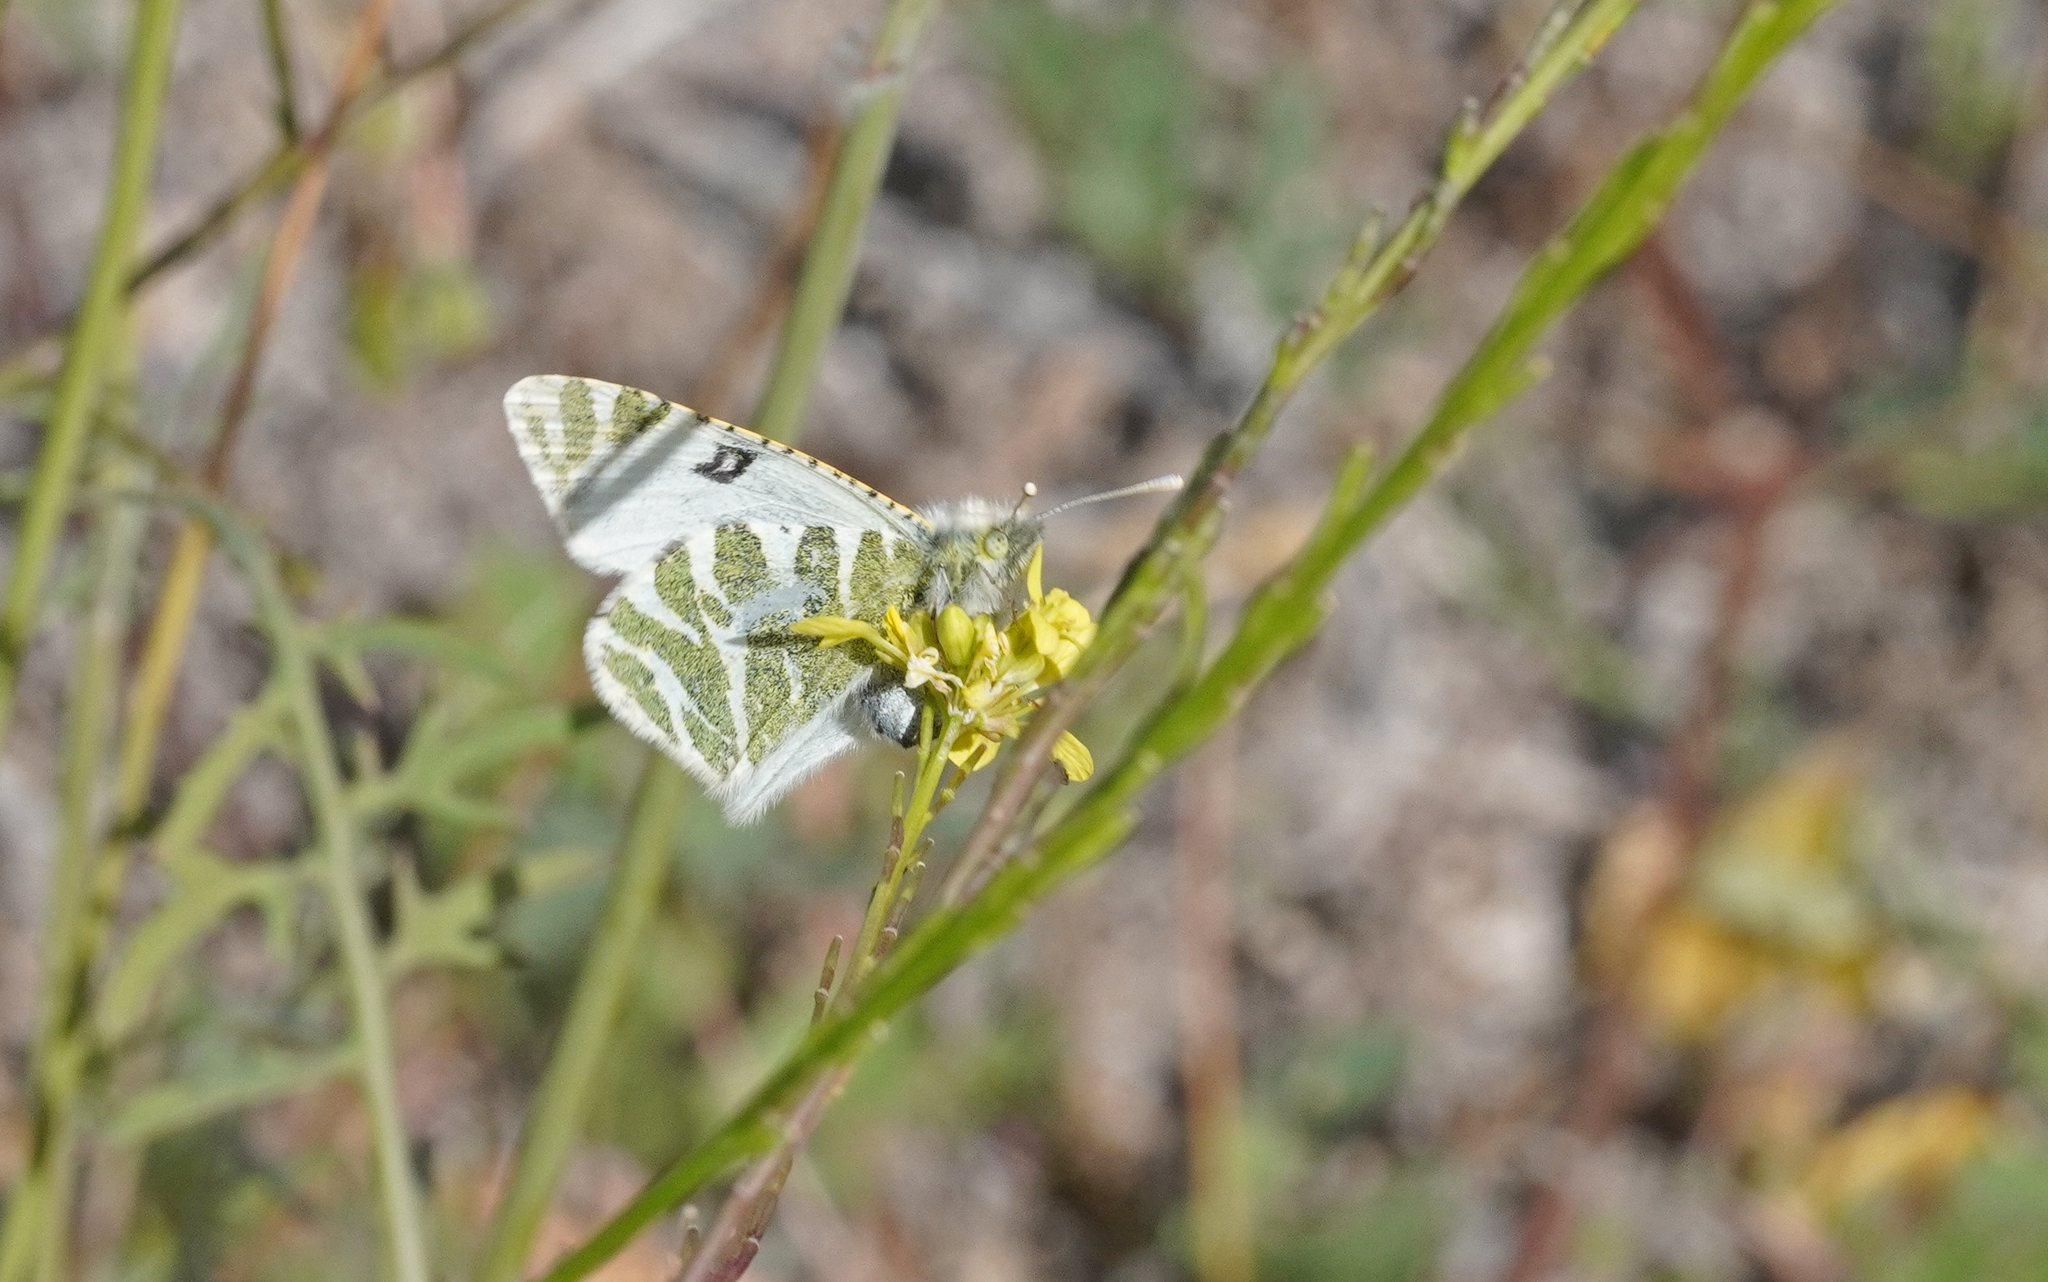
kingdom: Animalia
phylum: Arthropoda
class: Insecta
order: Lepidoptera
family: Pieridae
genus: Euchloe
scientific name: Euchloe grancanariensis
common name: Gran canaria green-striped white
